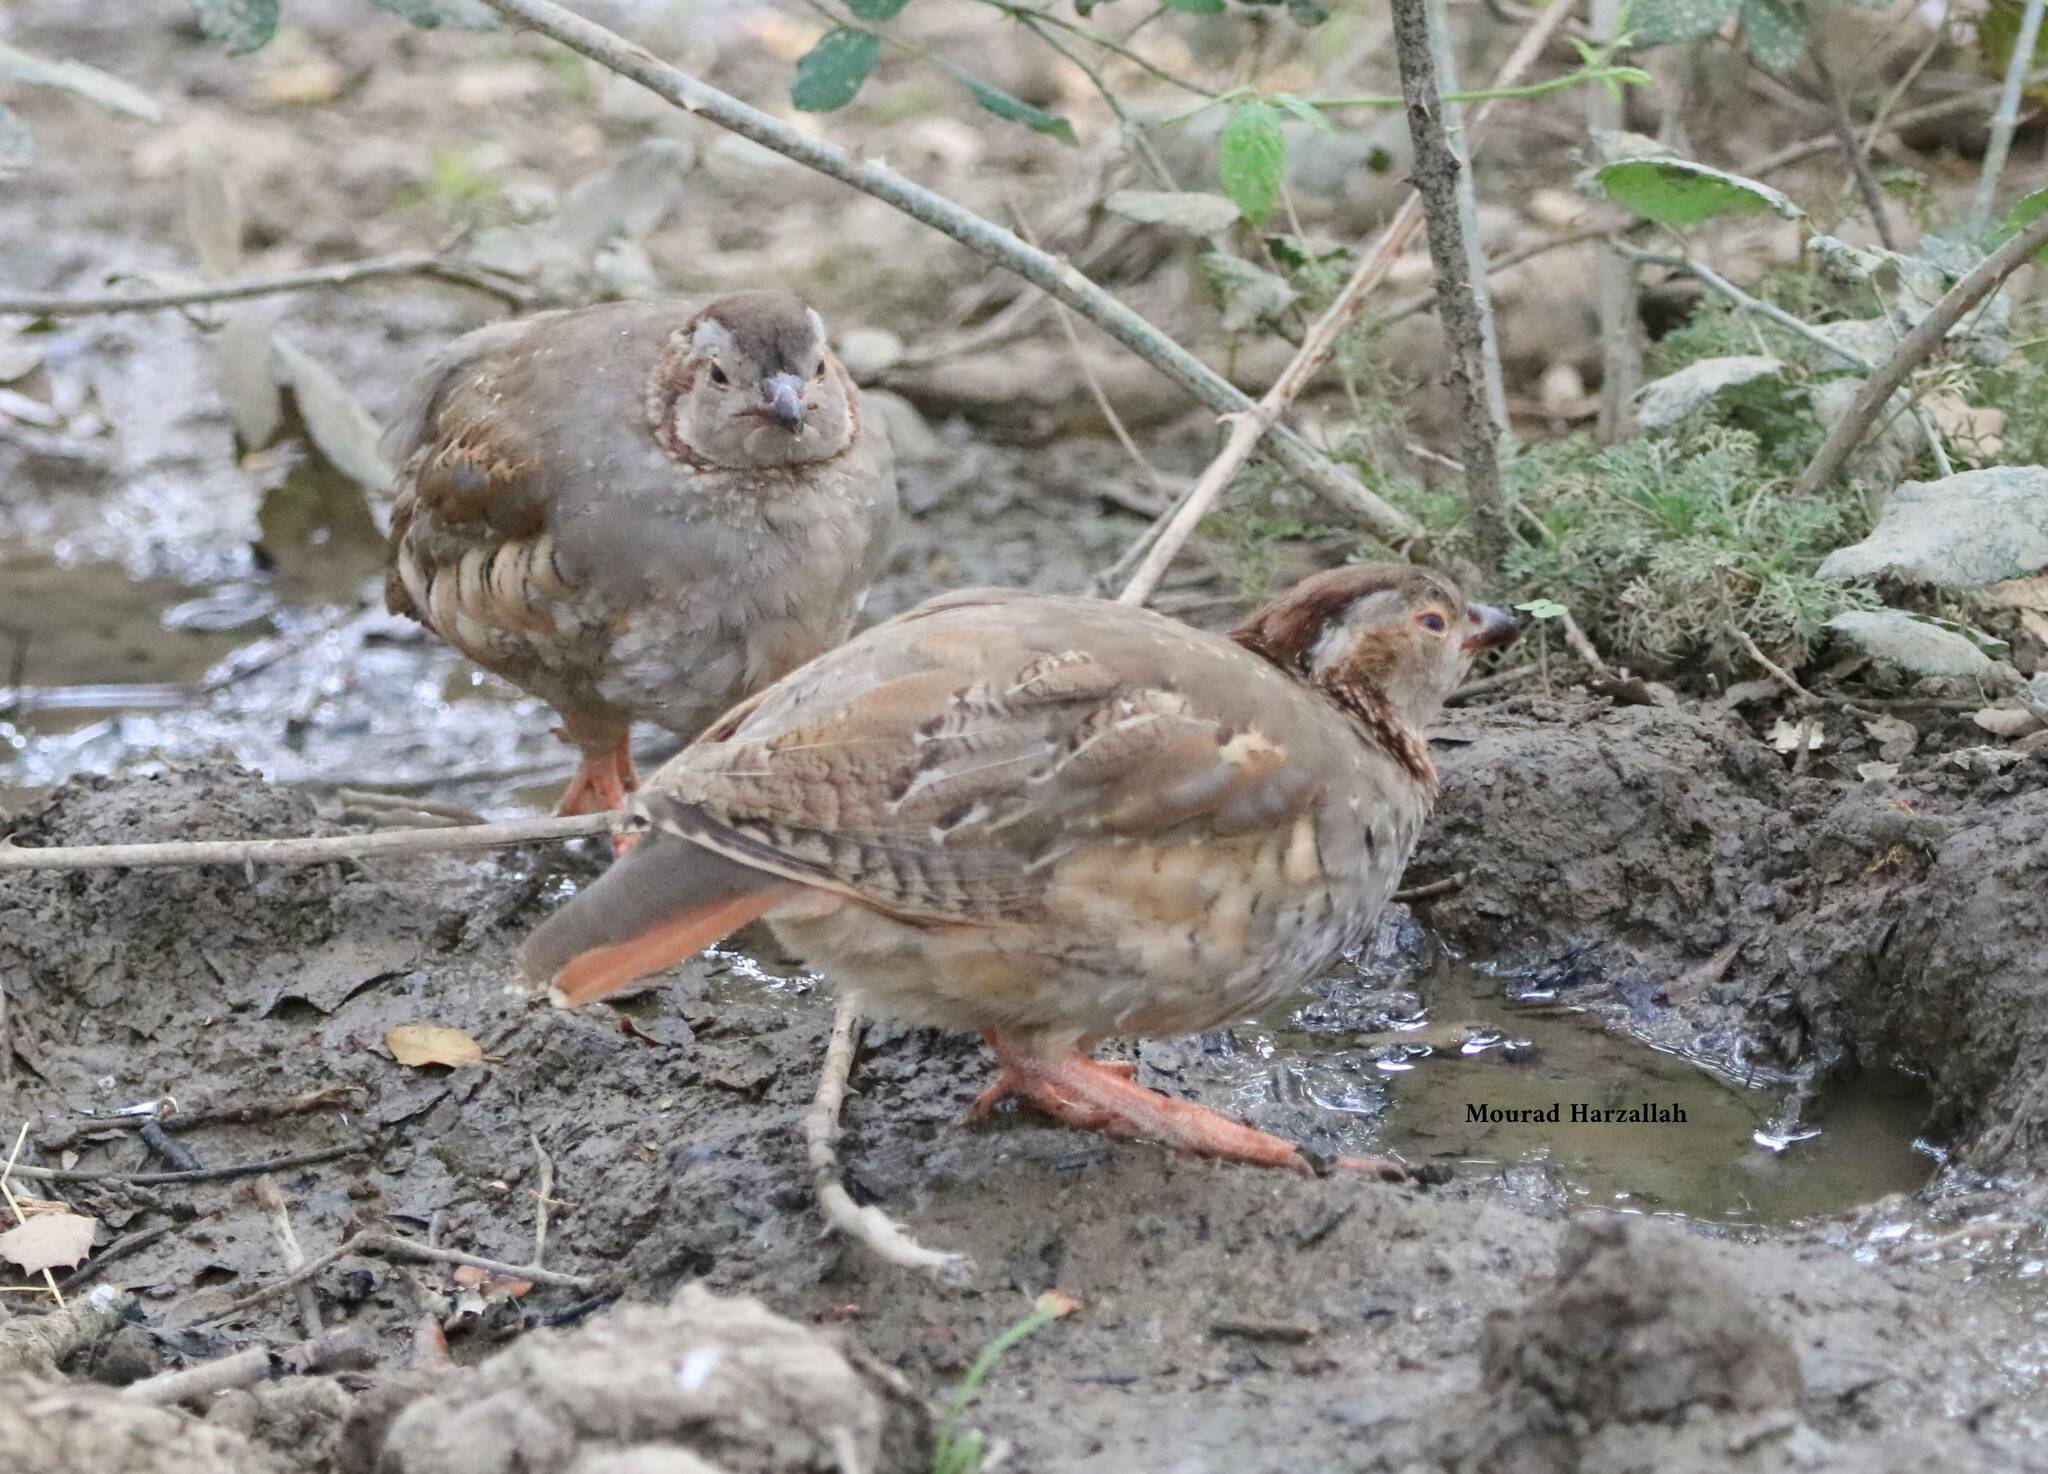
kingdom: Animalia
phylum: Chordata
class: Aves
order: Galliformes
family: Phasianidae
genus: Alectoris
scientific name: Alectoris barbara
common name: Barbary partridge
